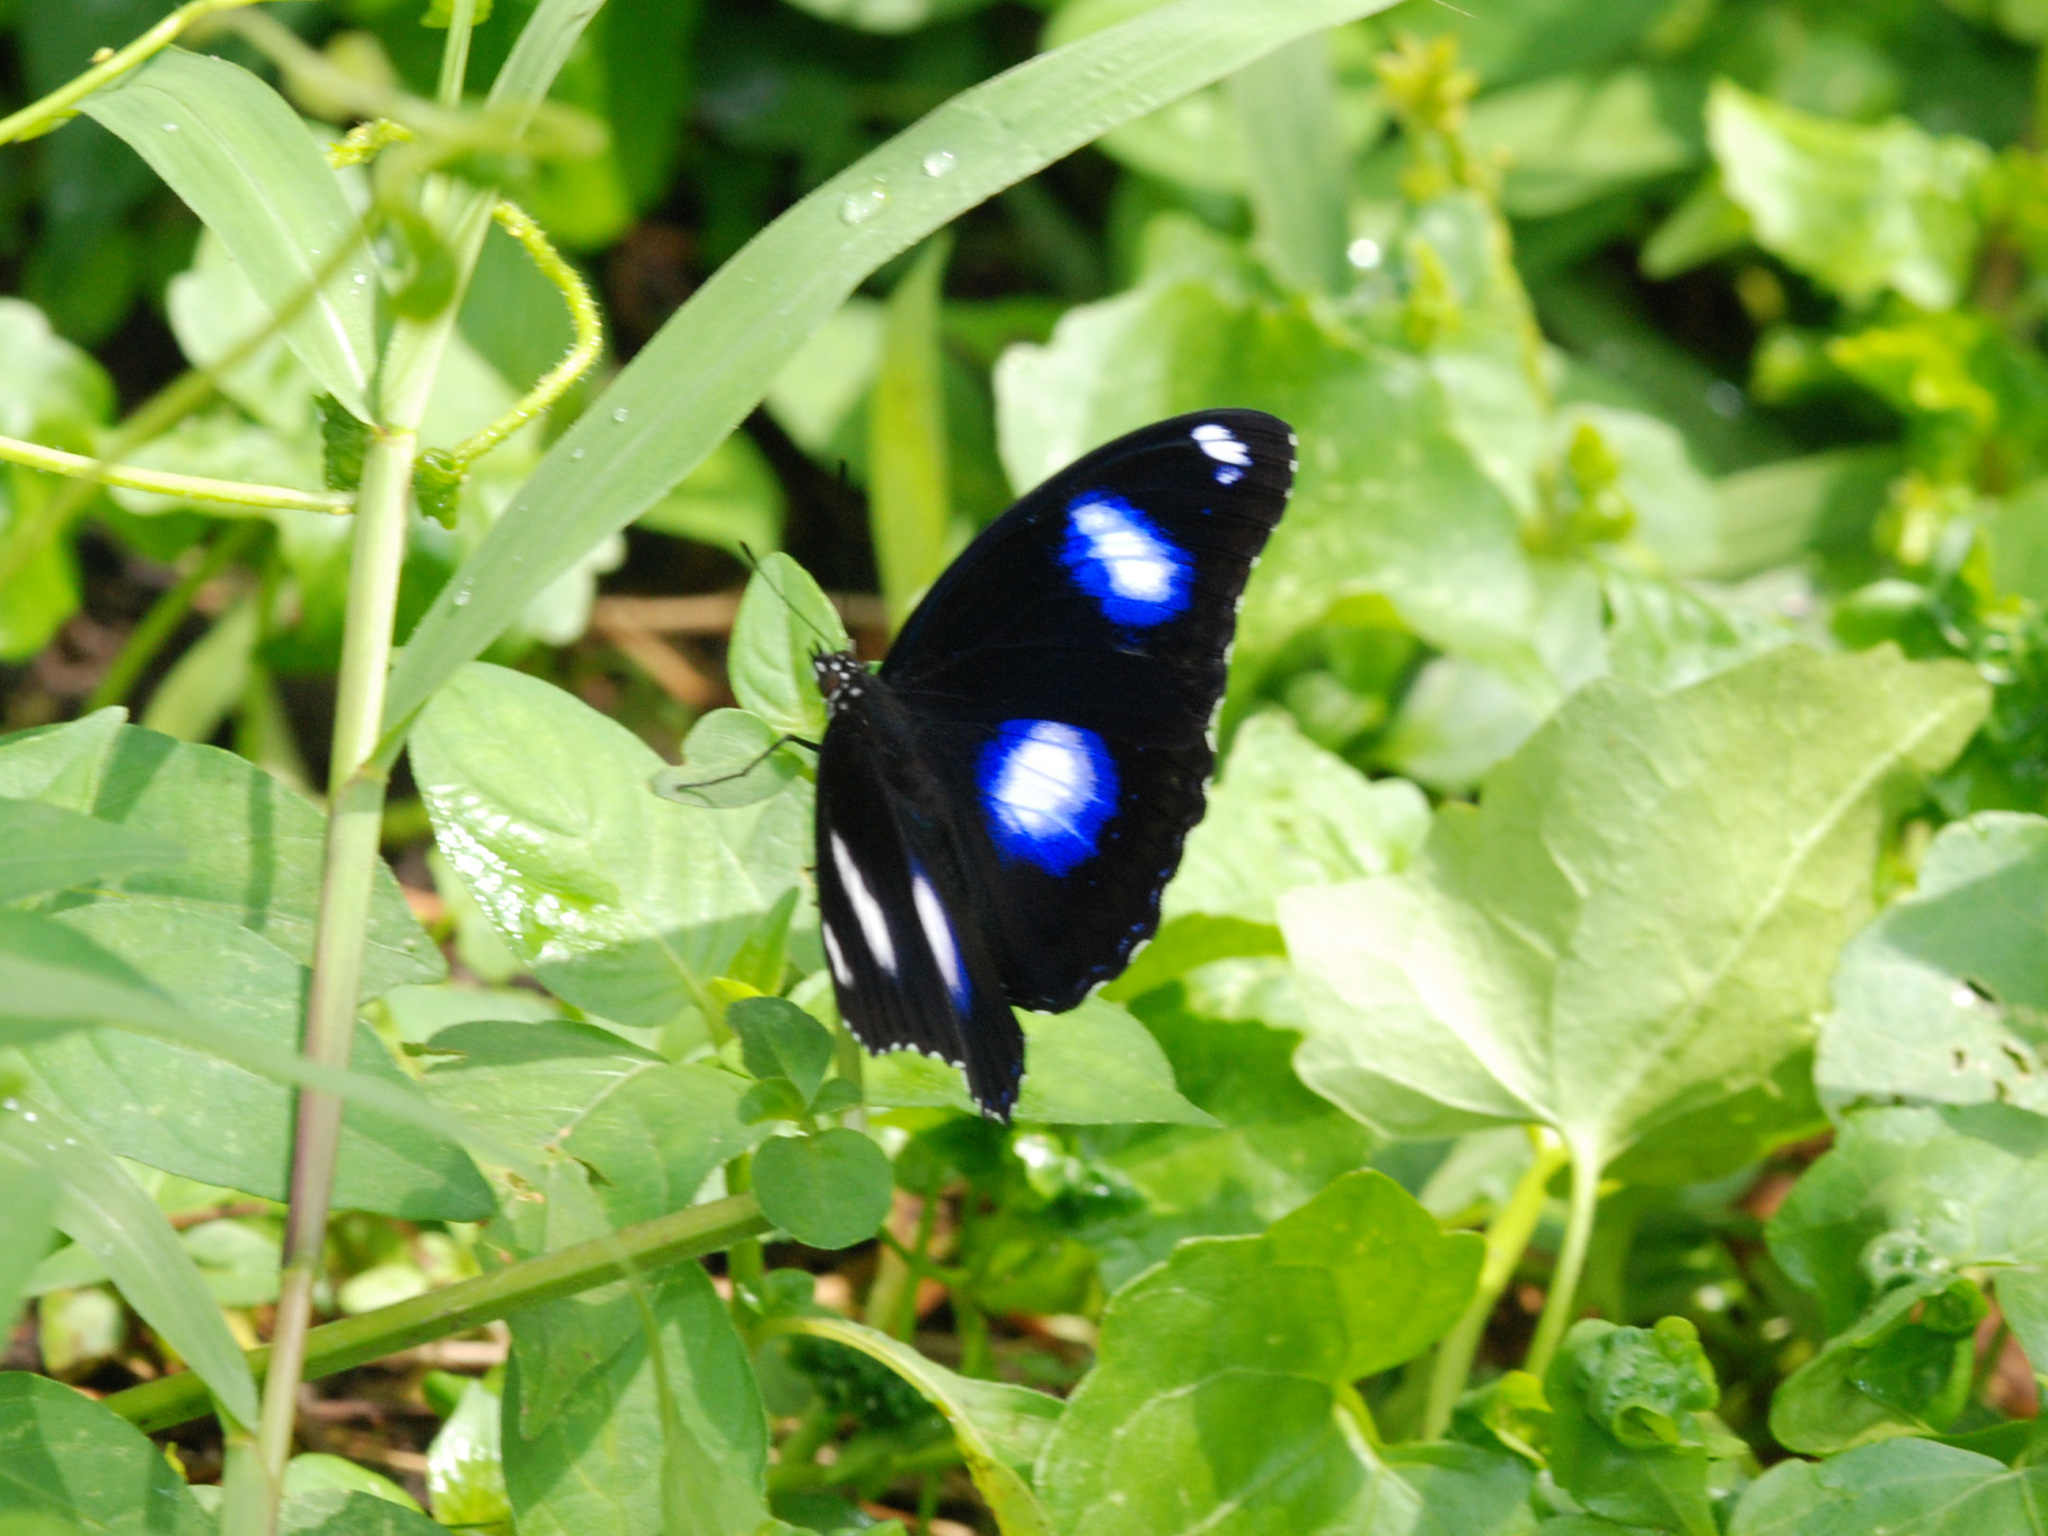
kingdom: Animalia
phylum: Arthropoda
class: Insecta
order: Lepidoptera
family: Nymphalidae
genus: Hypolimnas
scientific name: Hypolimnas bolina
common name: Great eggfly
